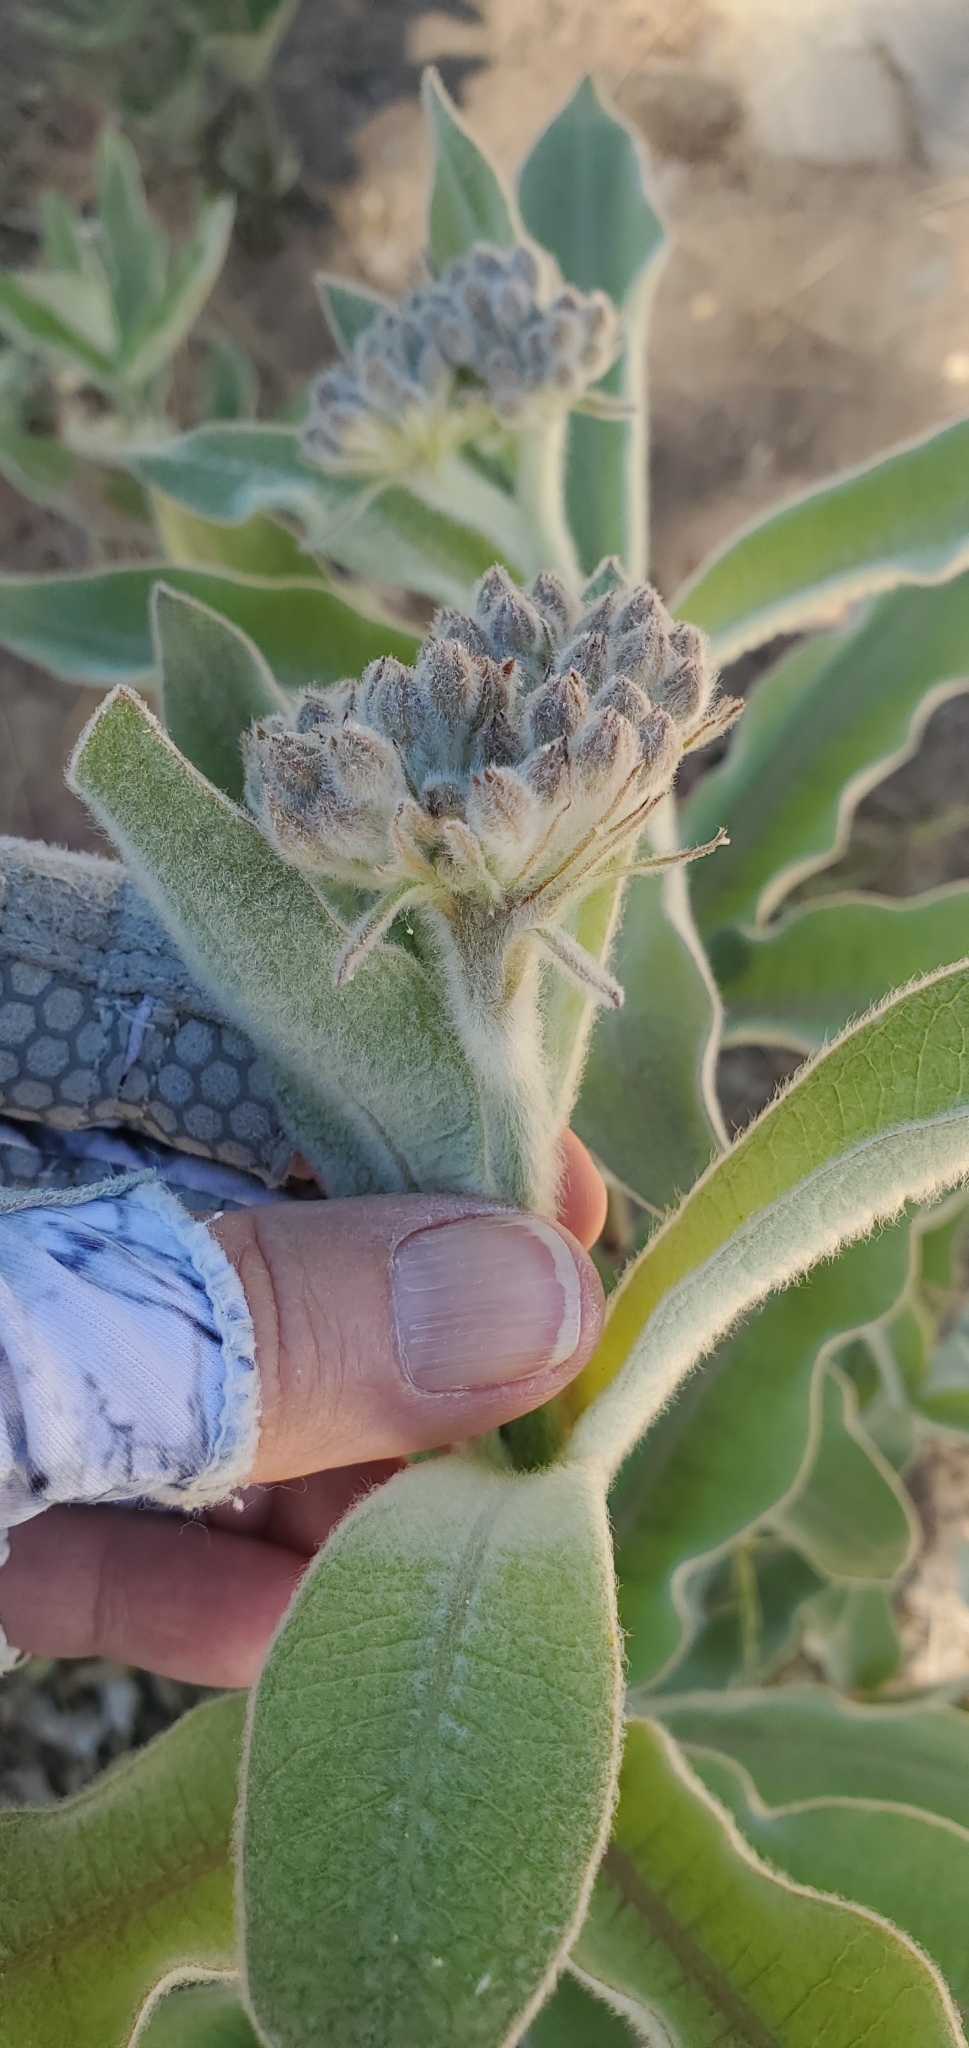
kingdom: Plantae
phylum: Tracheophyta
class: Magnoliopsida
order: Gentianales
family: Apocynaceae
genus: Asclepias
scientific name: Asclepias eriocarpa
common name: Indian milkweed
